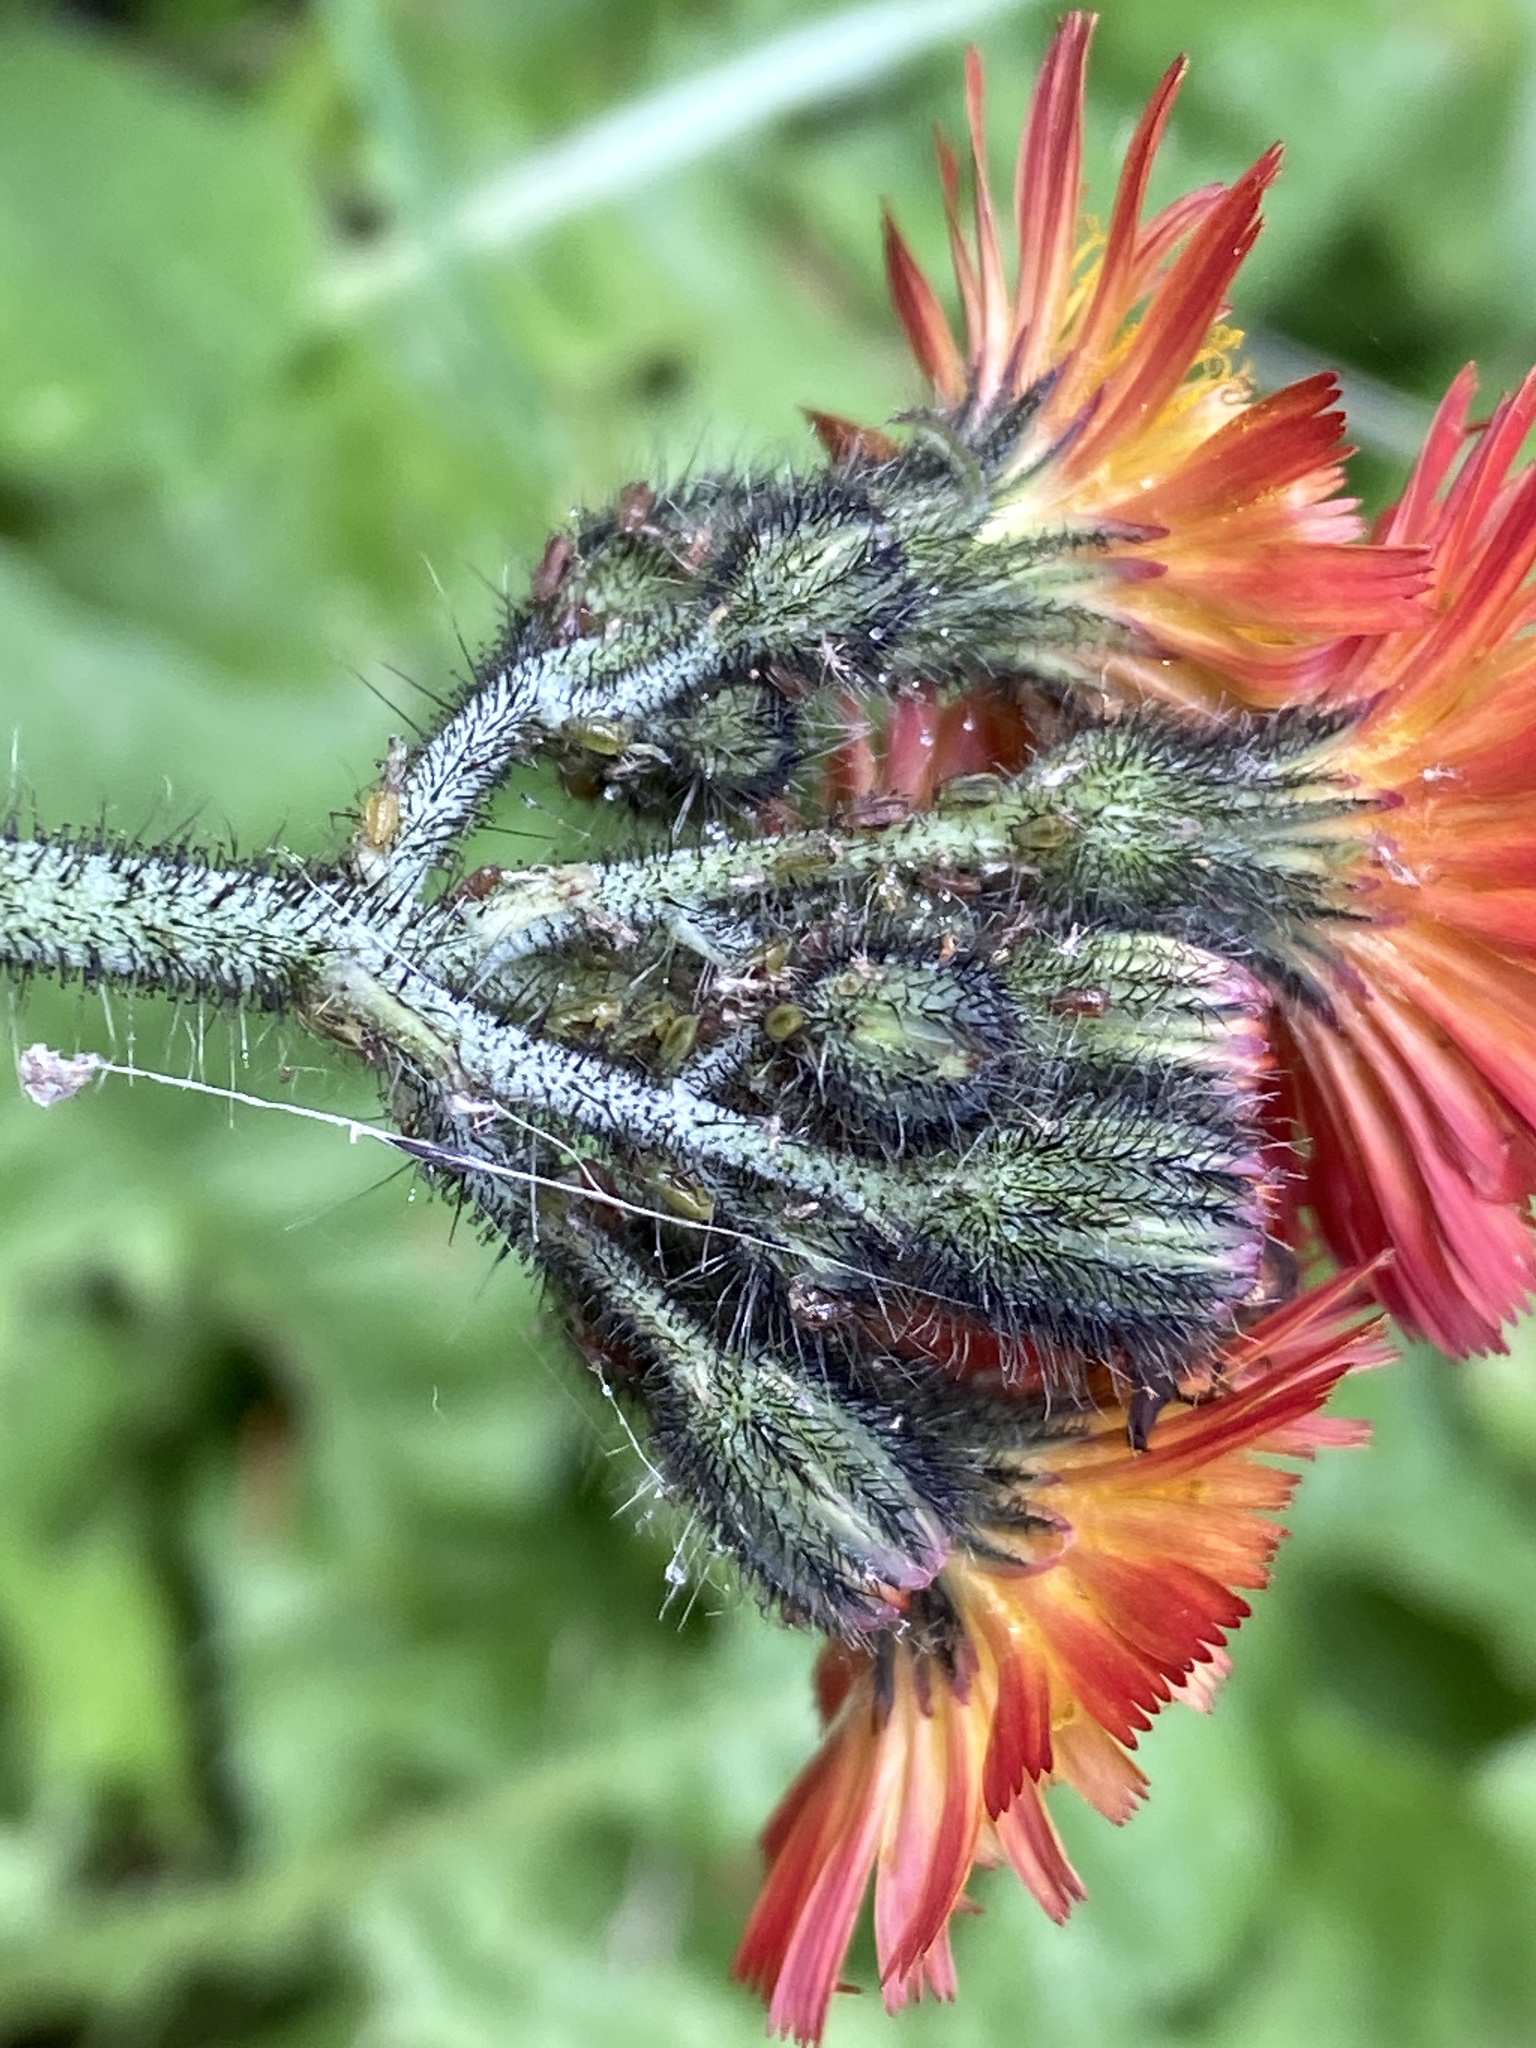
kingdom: Plantae
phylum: Tracheophyta
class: Magnoliopsida
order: Asterales
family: Asteraceae
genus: Pilosella
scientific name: Pilosella aurantiaca
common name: Fox-and-cubs
